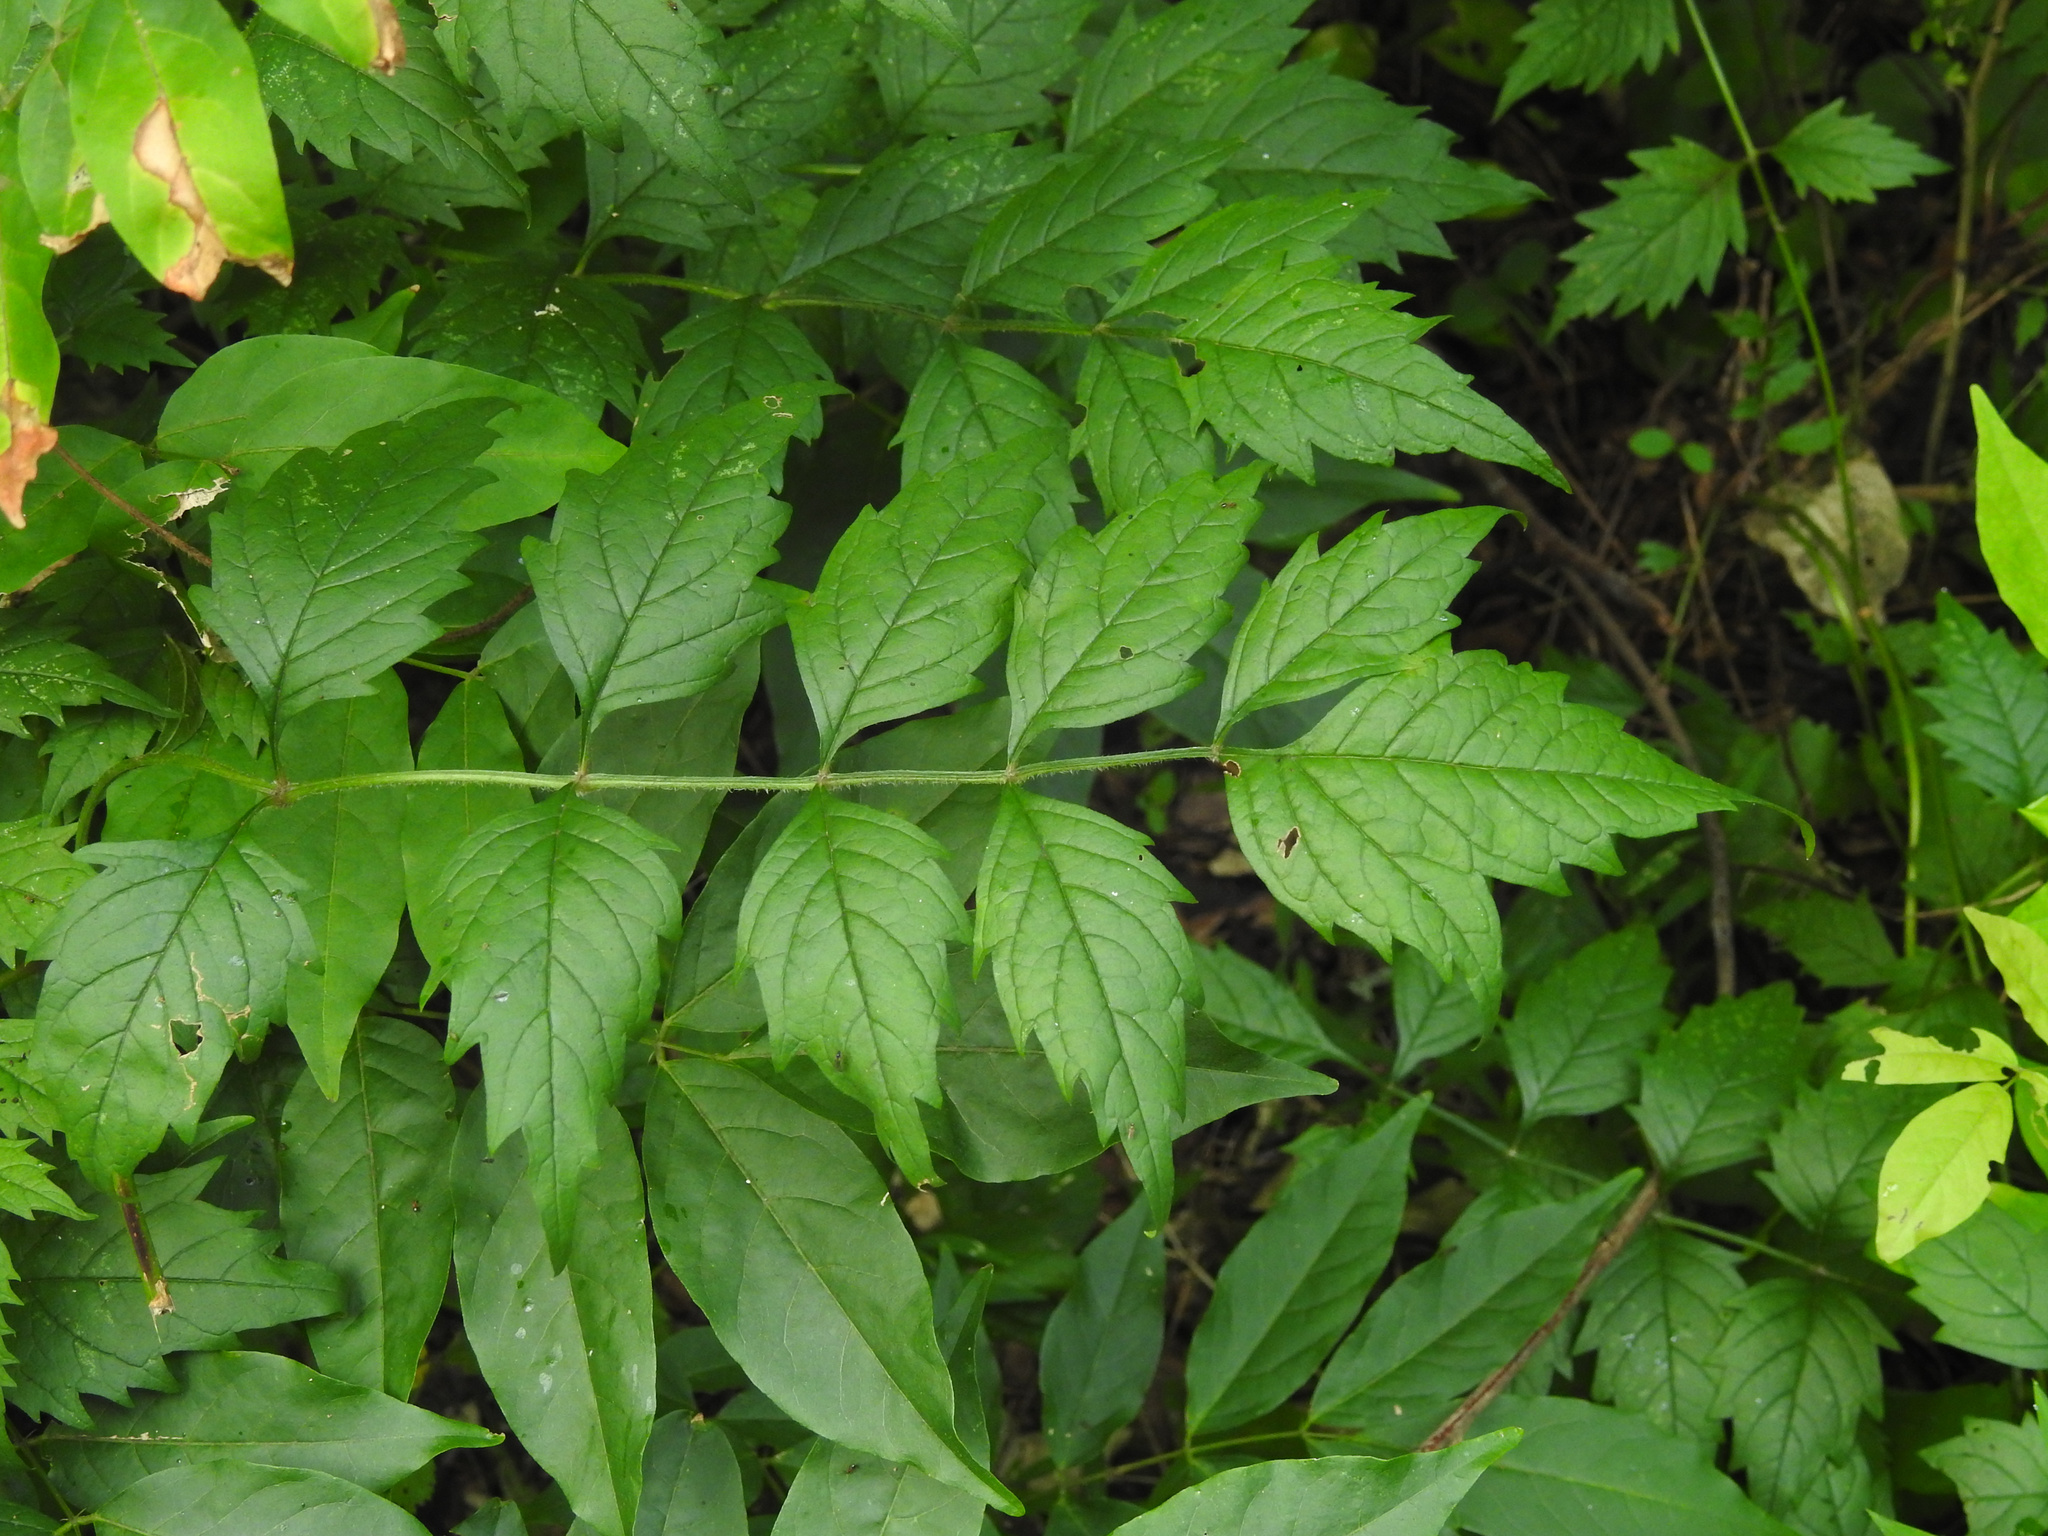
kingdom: Plantae
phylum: Tracheophyta
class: Magnoliopsida
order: Lamiales
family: Bignoniaceae
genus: Campsis
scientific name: Campsis radicans
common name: Trumpet-creeper
